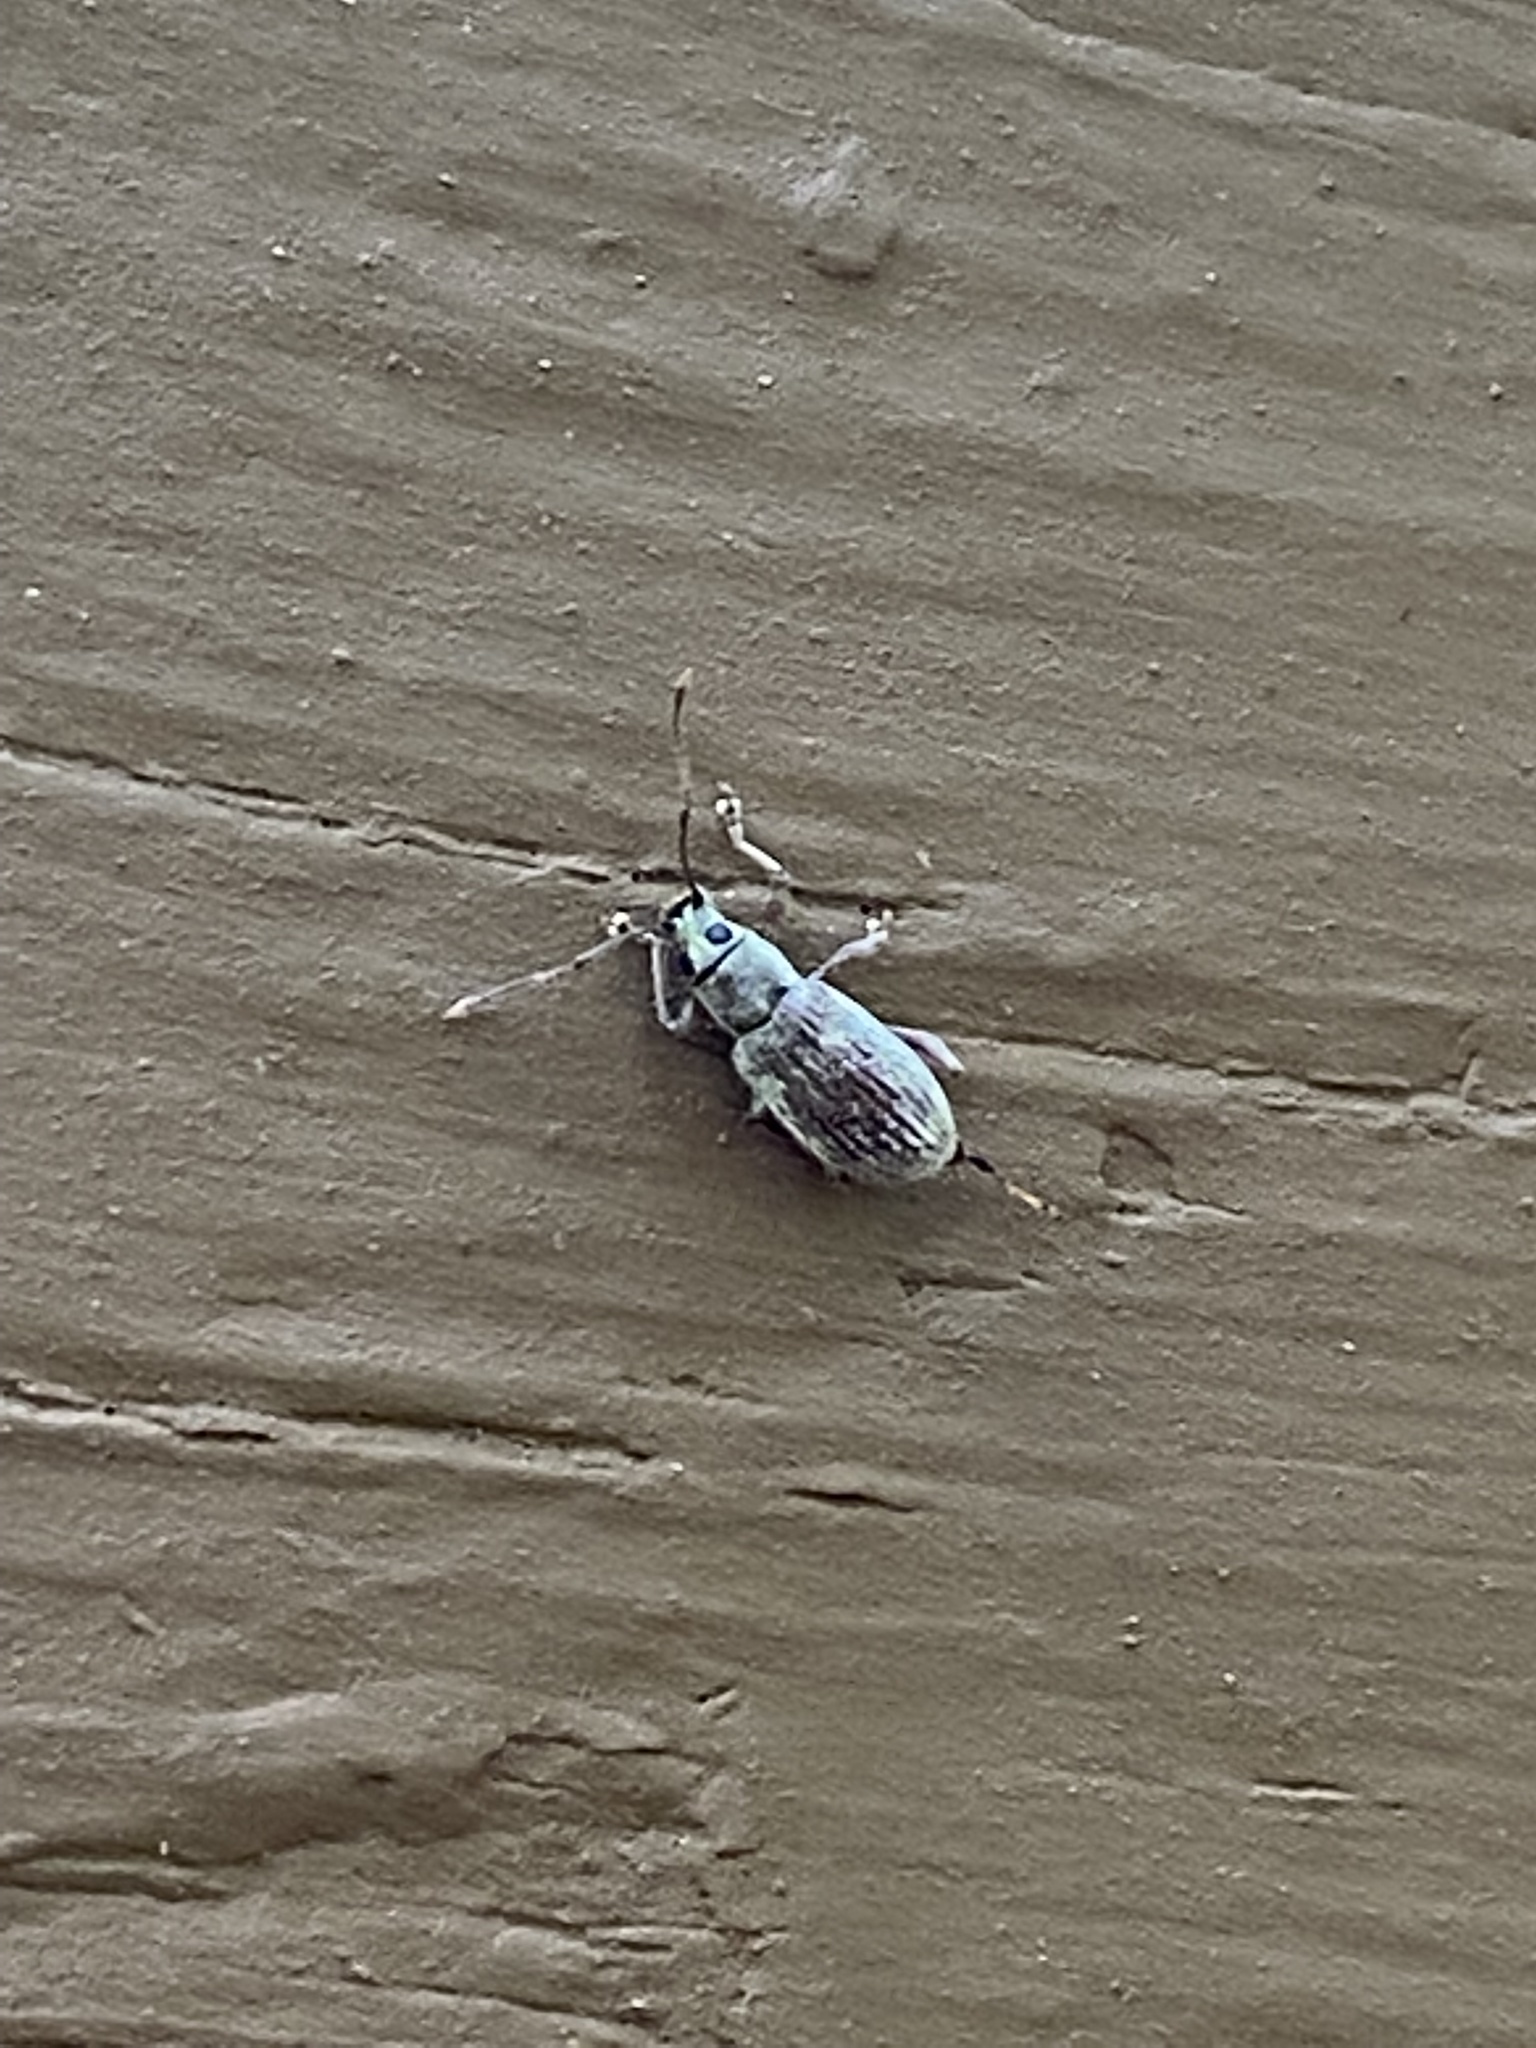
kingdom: Animalia
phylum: Arthropoda
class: Insecta
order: Coleoptera
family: Curculionidae
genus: Cyrtepistomus
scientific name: Cyrtepistomus castaneus
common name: Weevil
